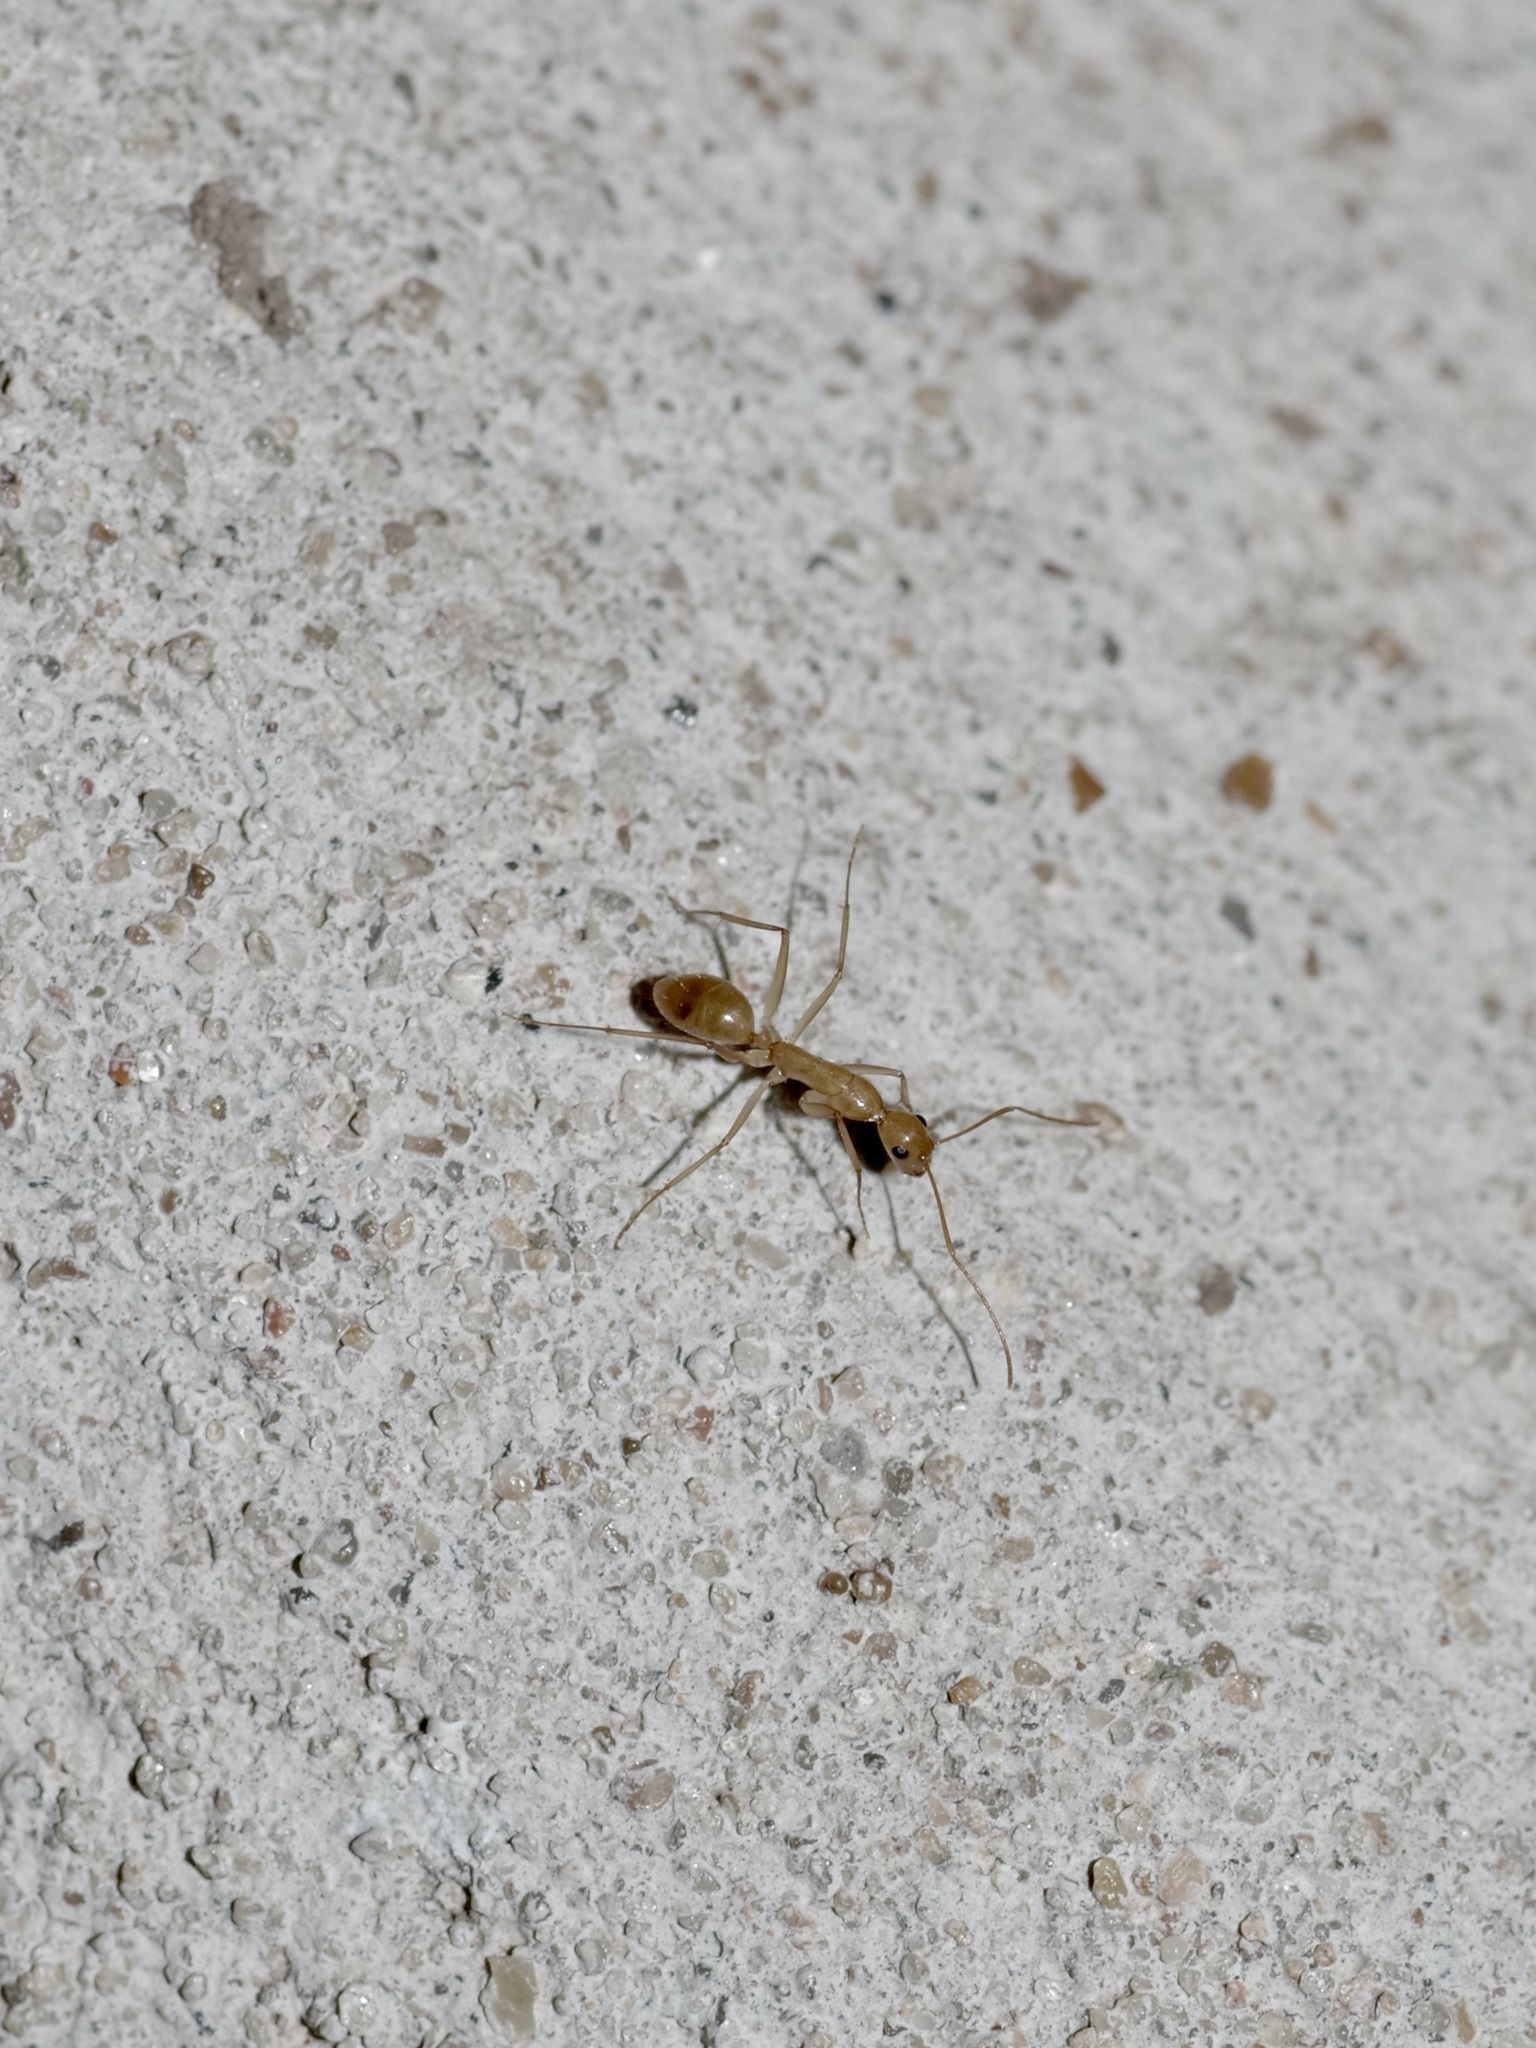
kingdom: Animalia
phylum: Arthropoda
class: Insecta
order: Hymenoptera
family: Formicidae
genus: Camponotus
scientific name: Camponotus festinatus
